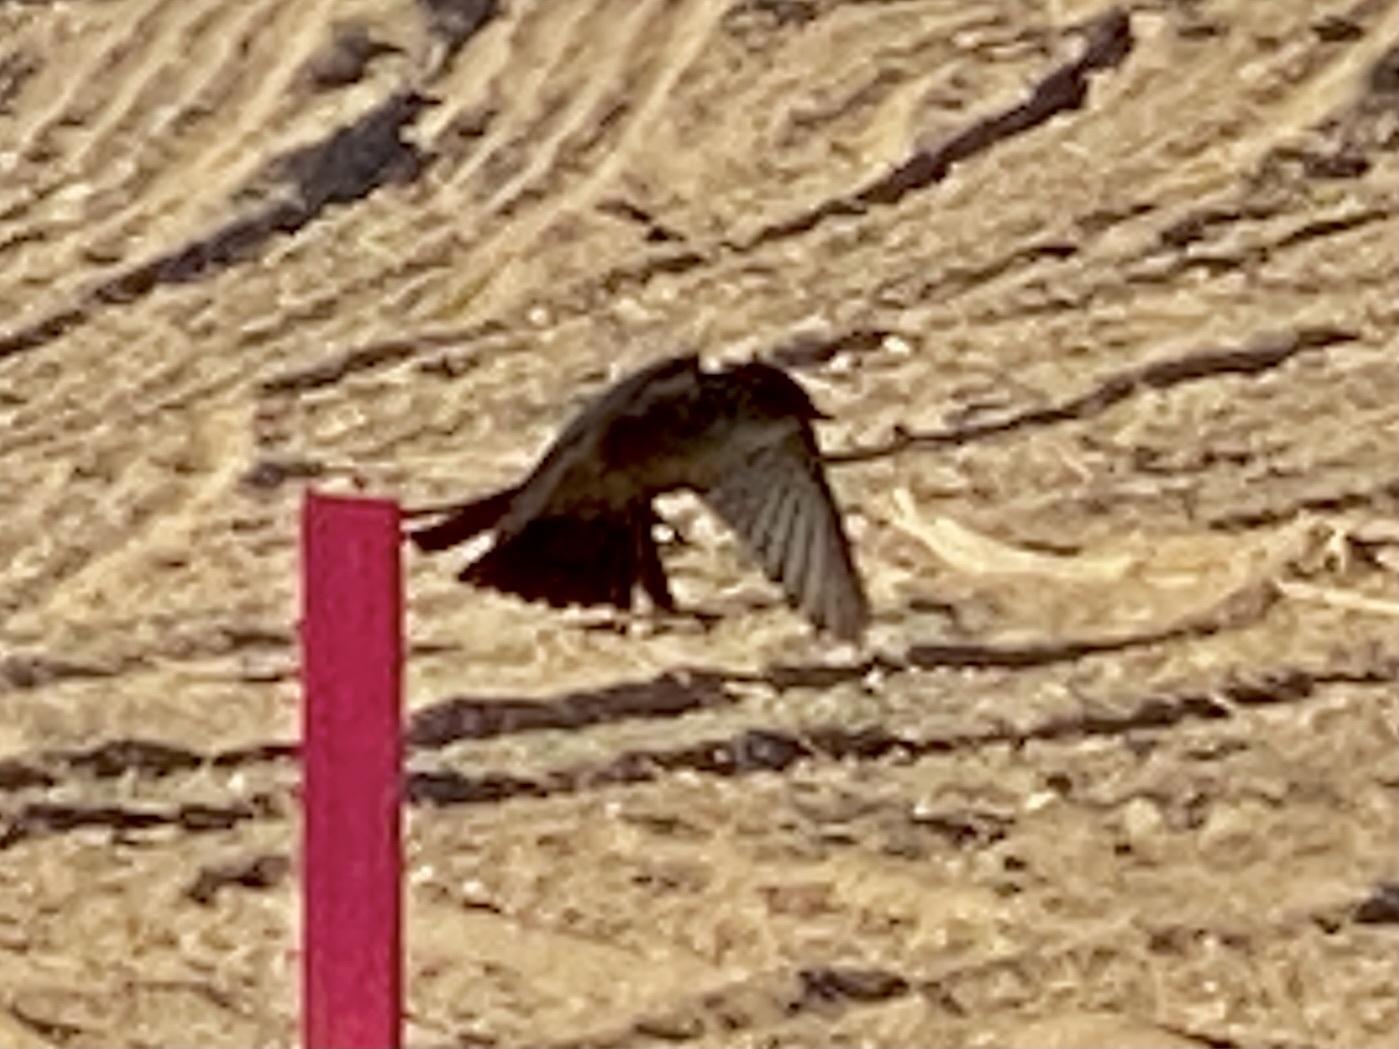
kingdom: Animalia
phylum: Chordata
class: Aves
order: Passeriformes
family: Tyrannidae
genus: Sayornis
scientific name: Sayornis saya
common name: Say's phoebe
